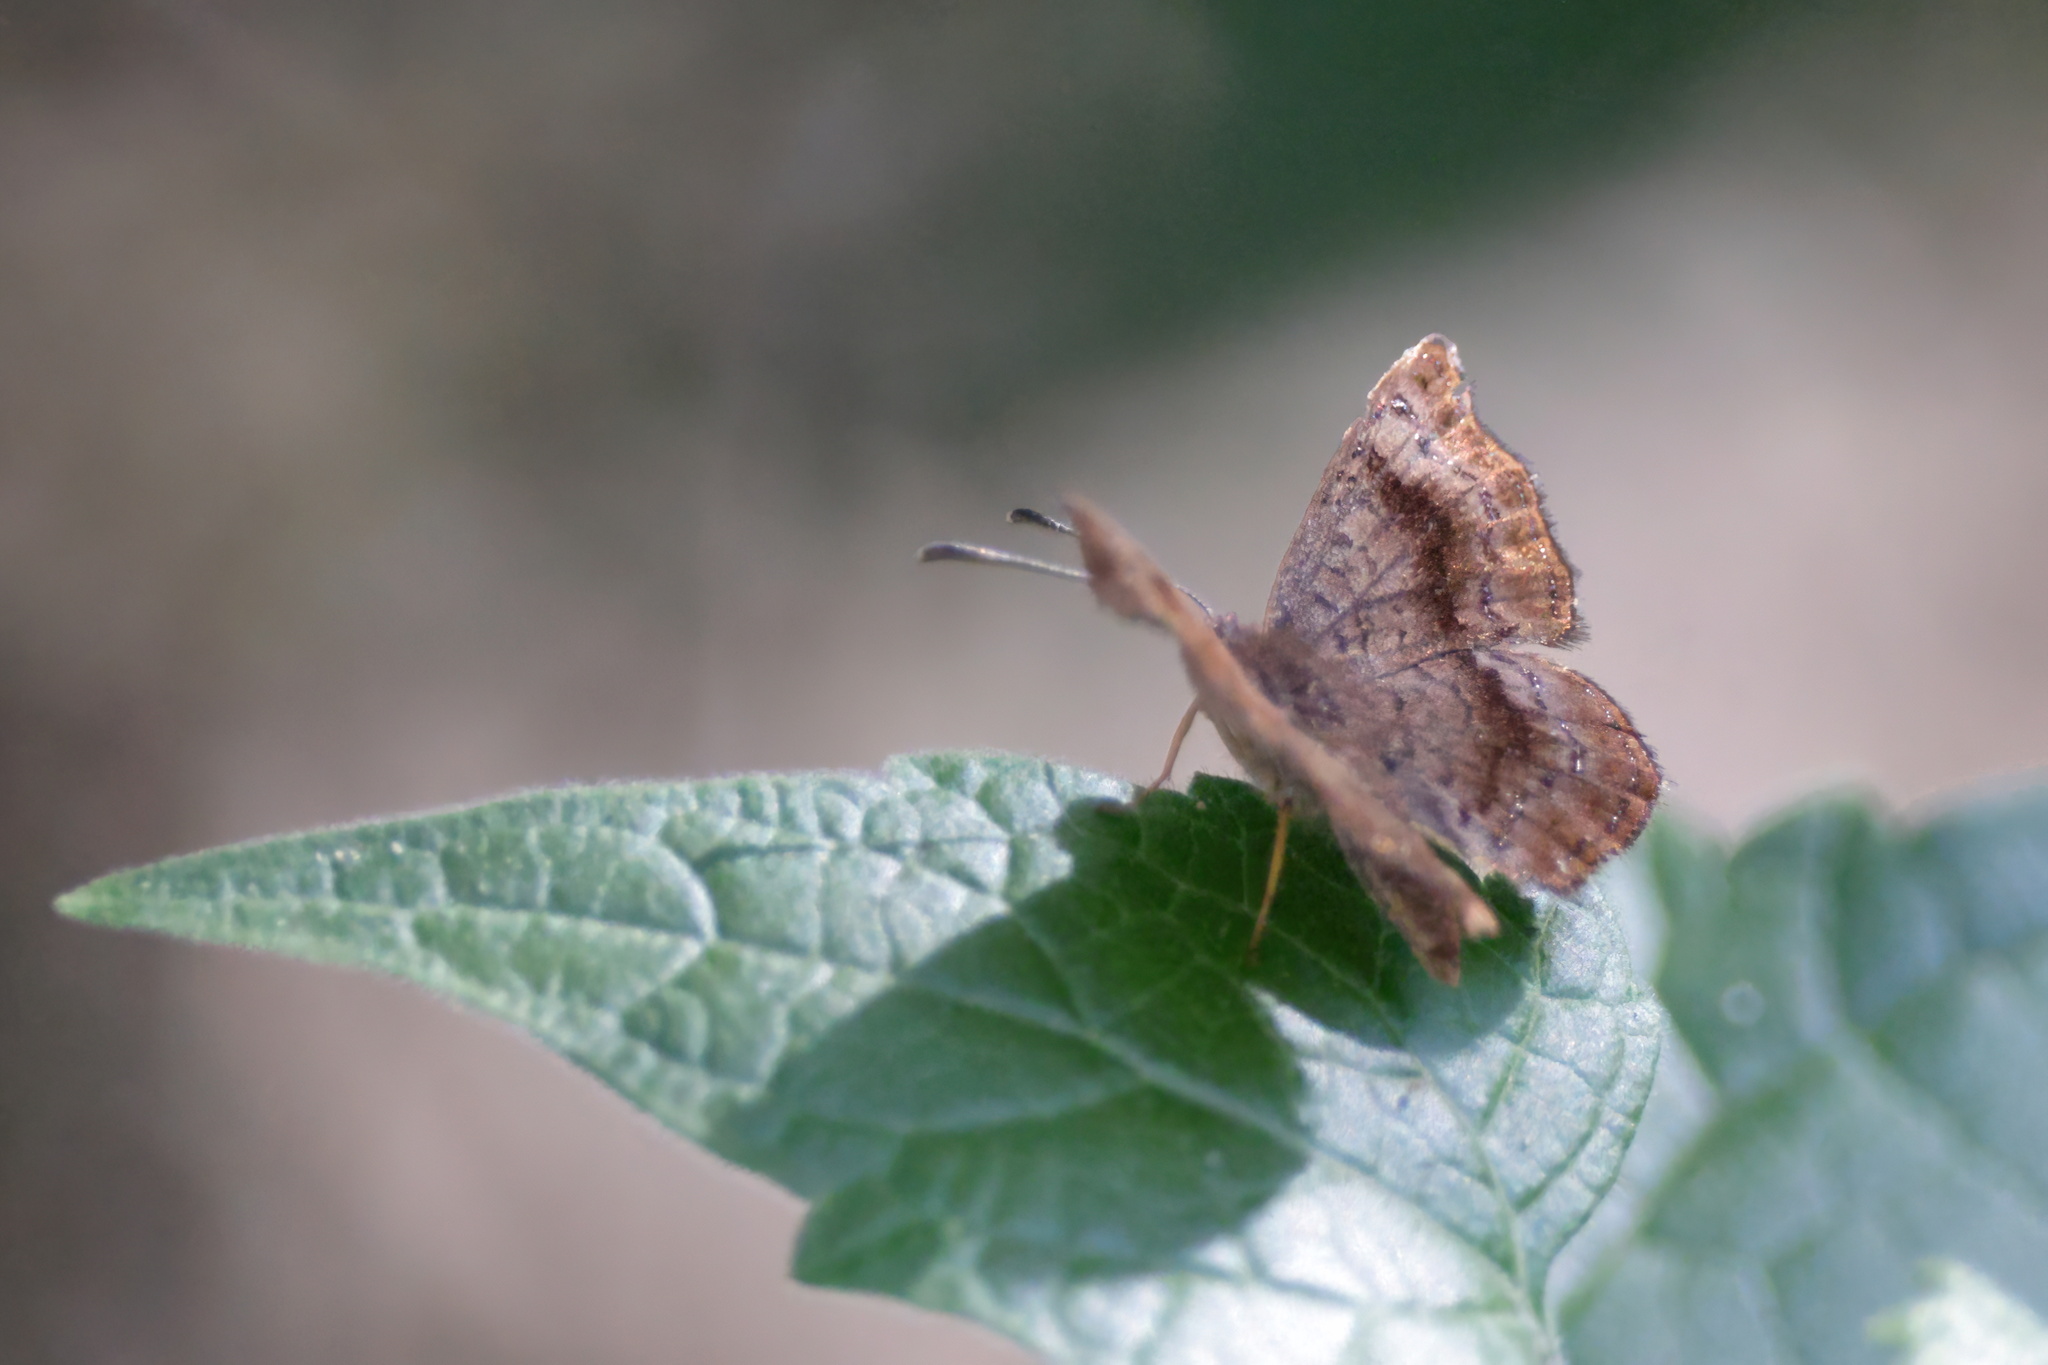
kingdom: Animalia
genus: Calephelis
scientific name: Calephelis perditalis
